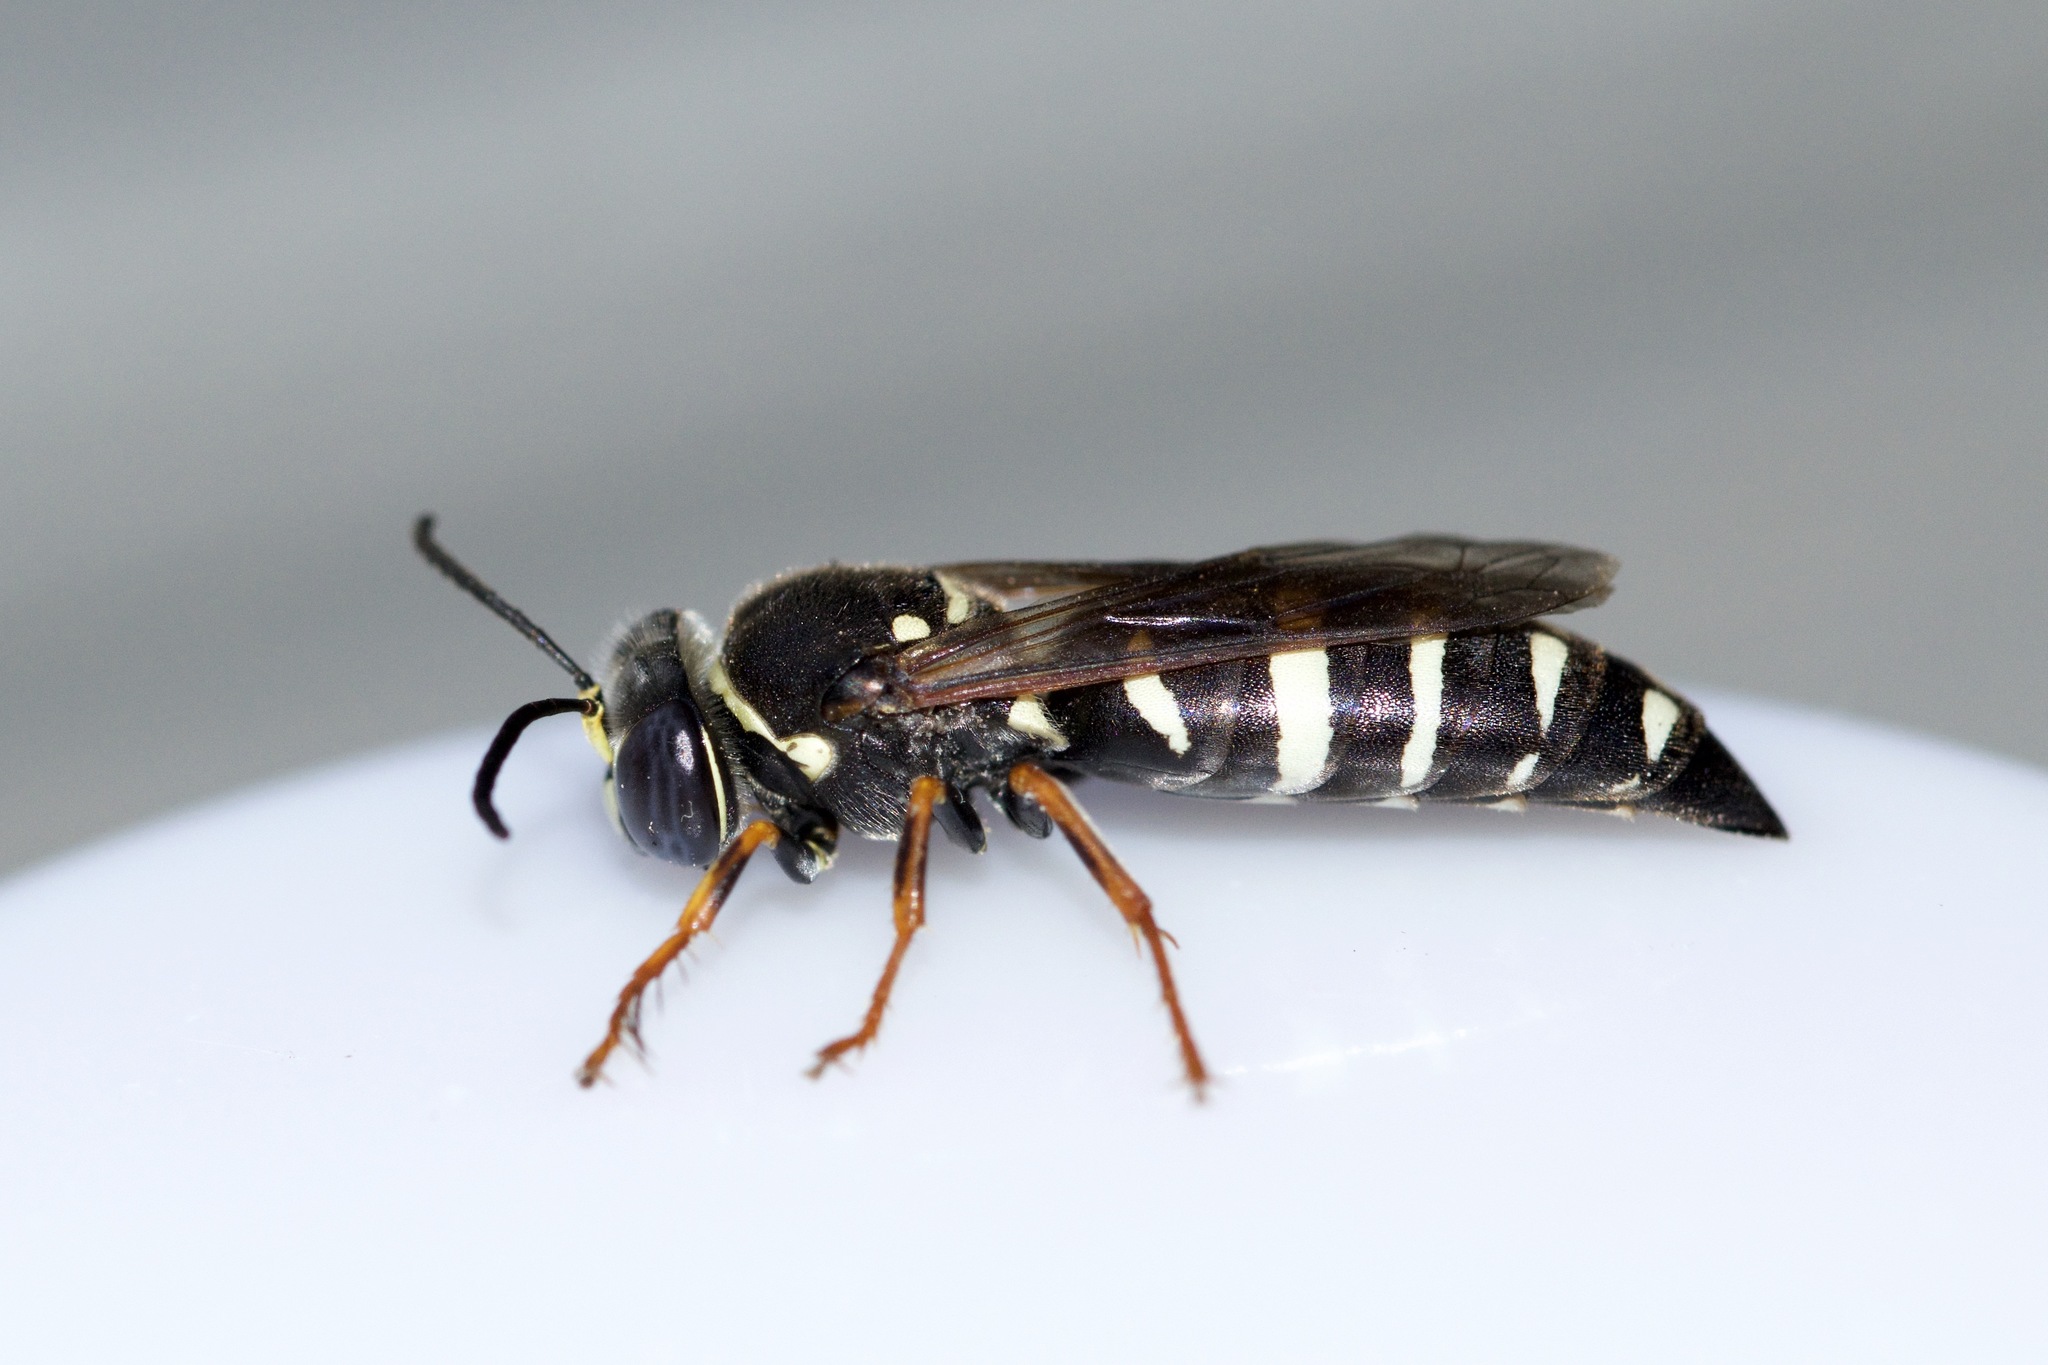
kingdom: Animalia
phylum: Arthropoda
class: Insecta
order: Hymenoptera
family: Crabronidae
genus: Bicyrtes
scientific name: Bicyrtes ventralis
